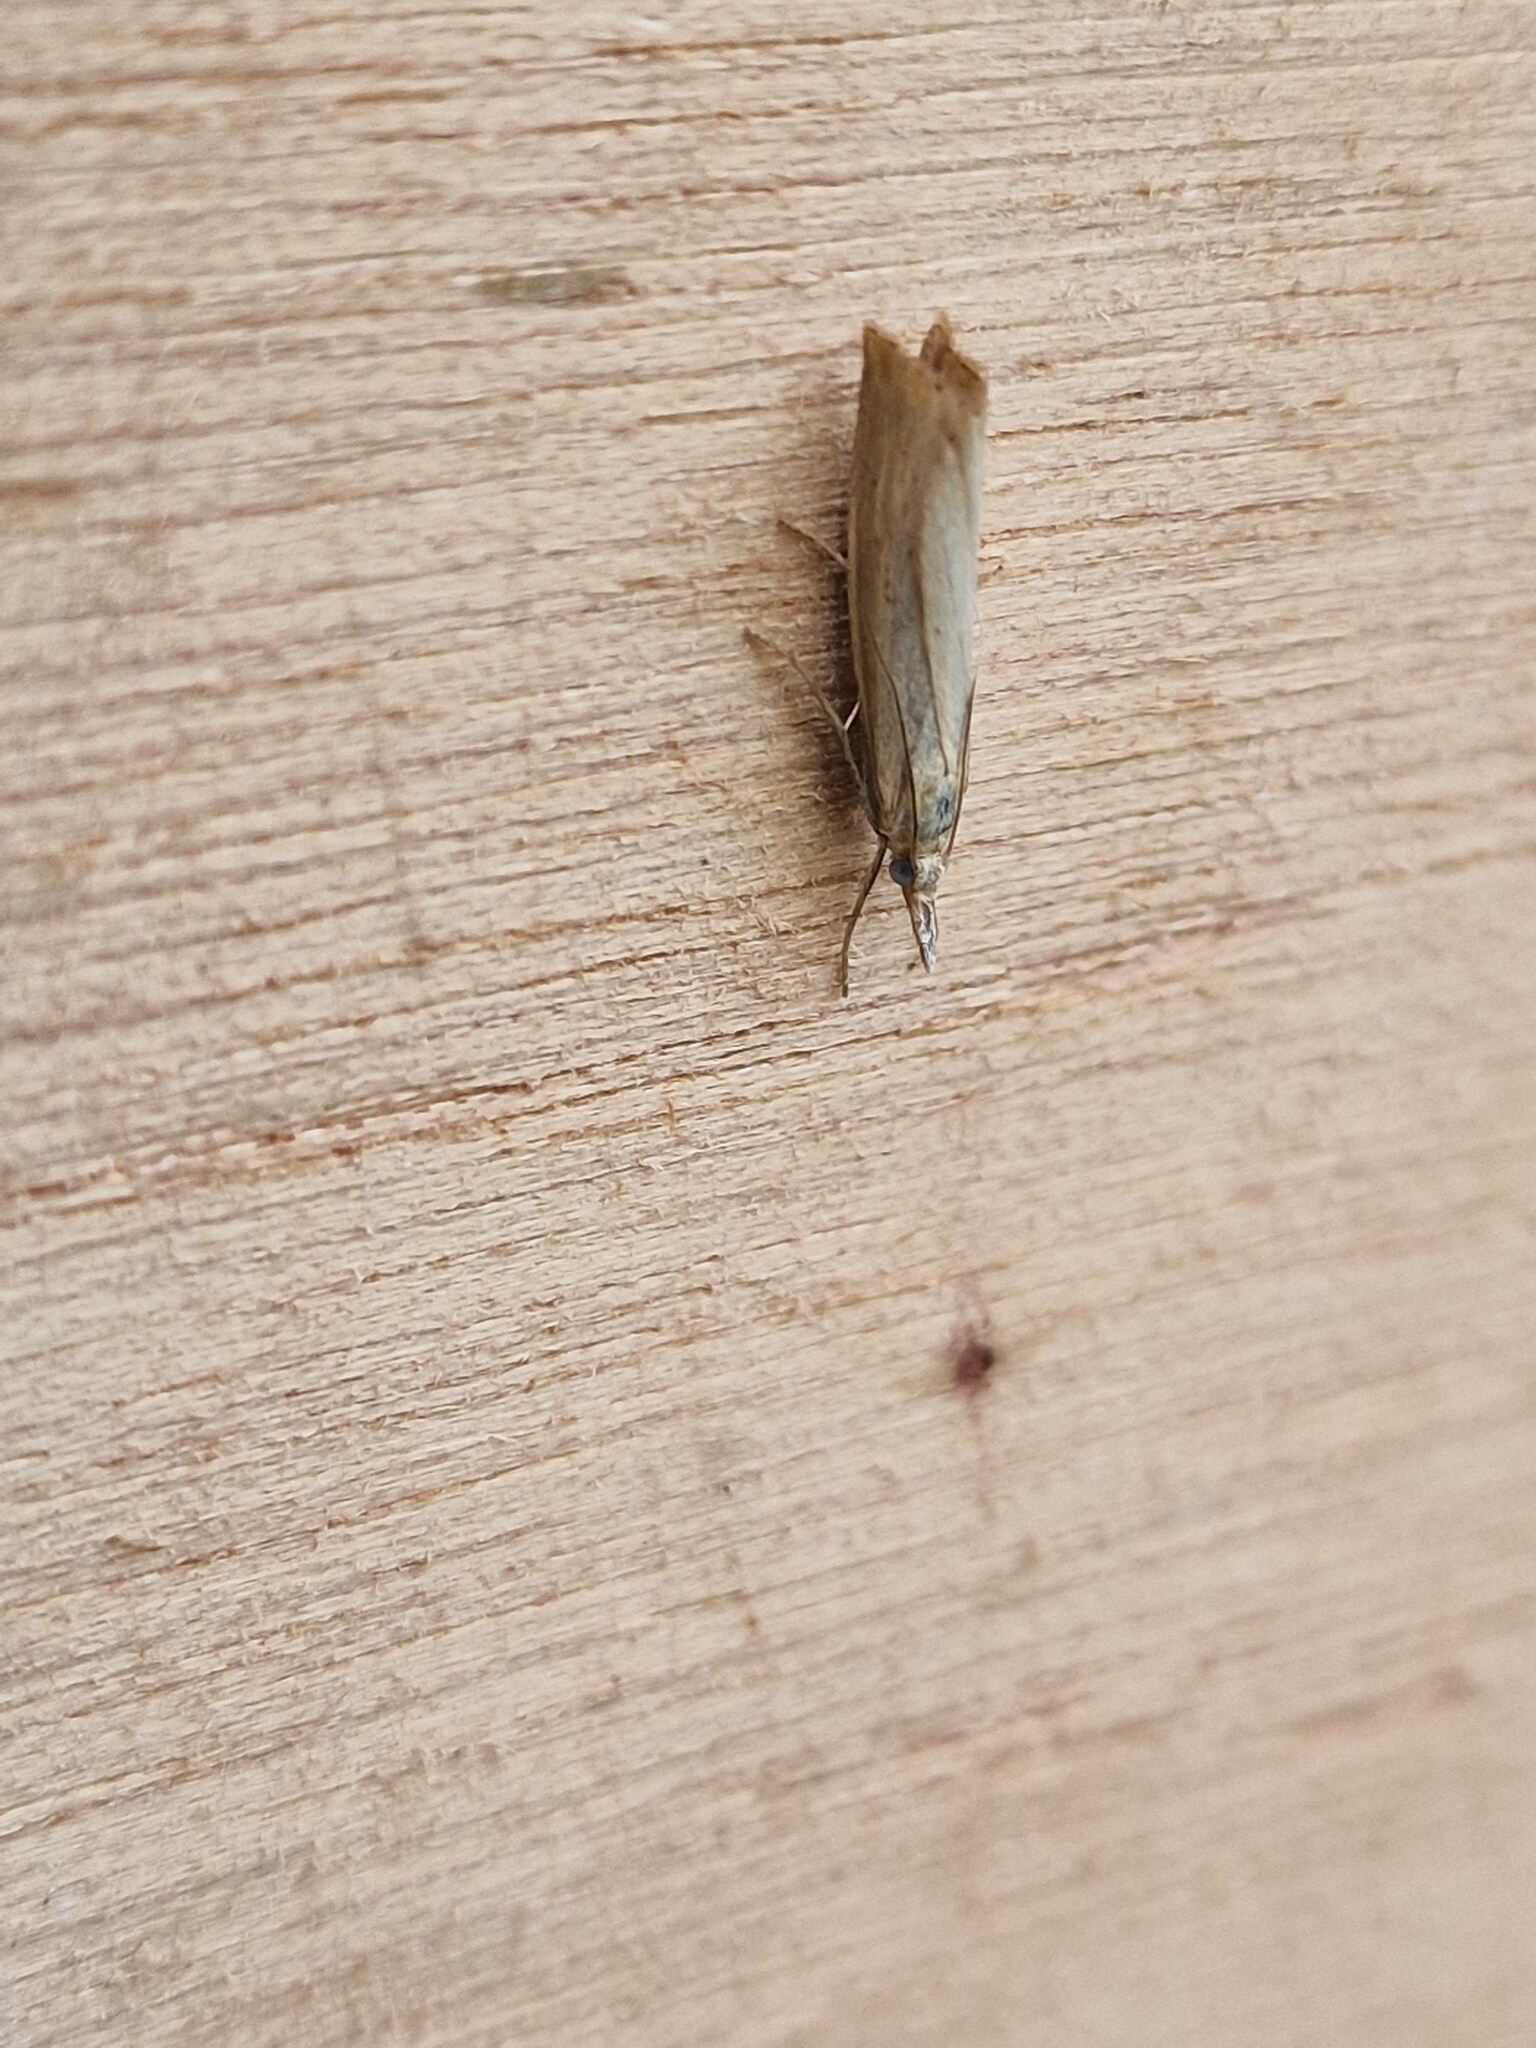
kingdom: Animalia
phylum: Arthropoda
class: Insecta
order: Lepidoptera
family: Crambidae
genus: Agriphila
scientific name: Agriphila straminella
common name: Straw grass-veneer
